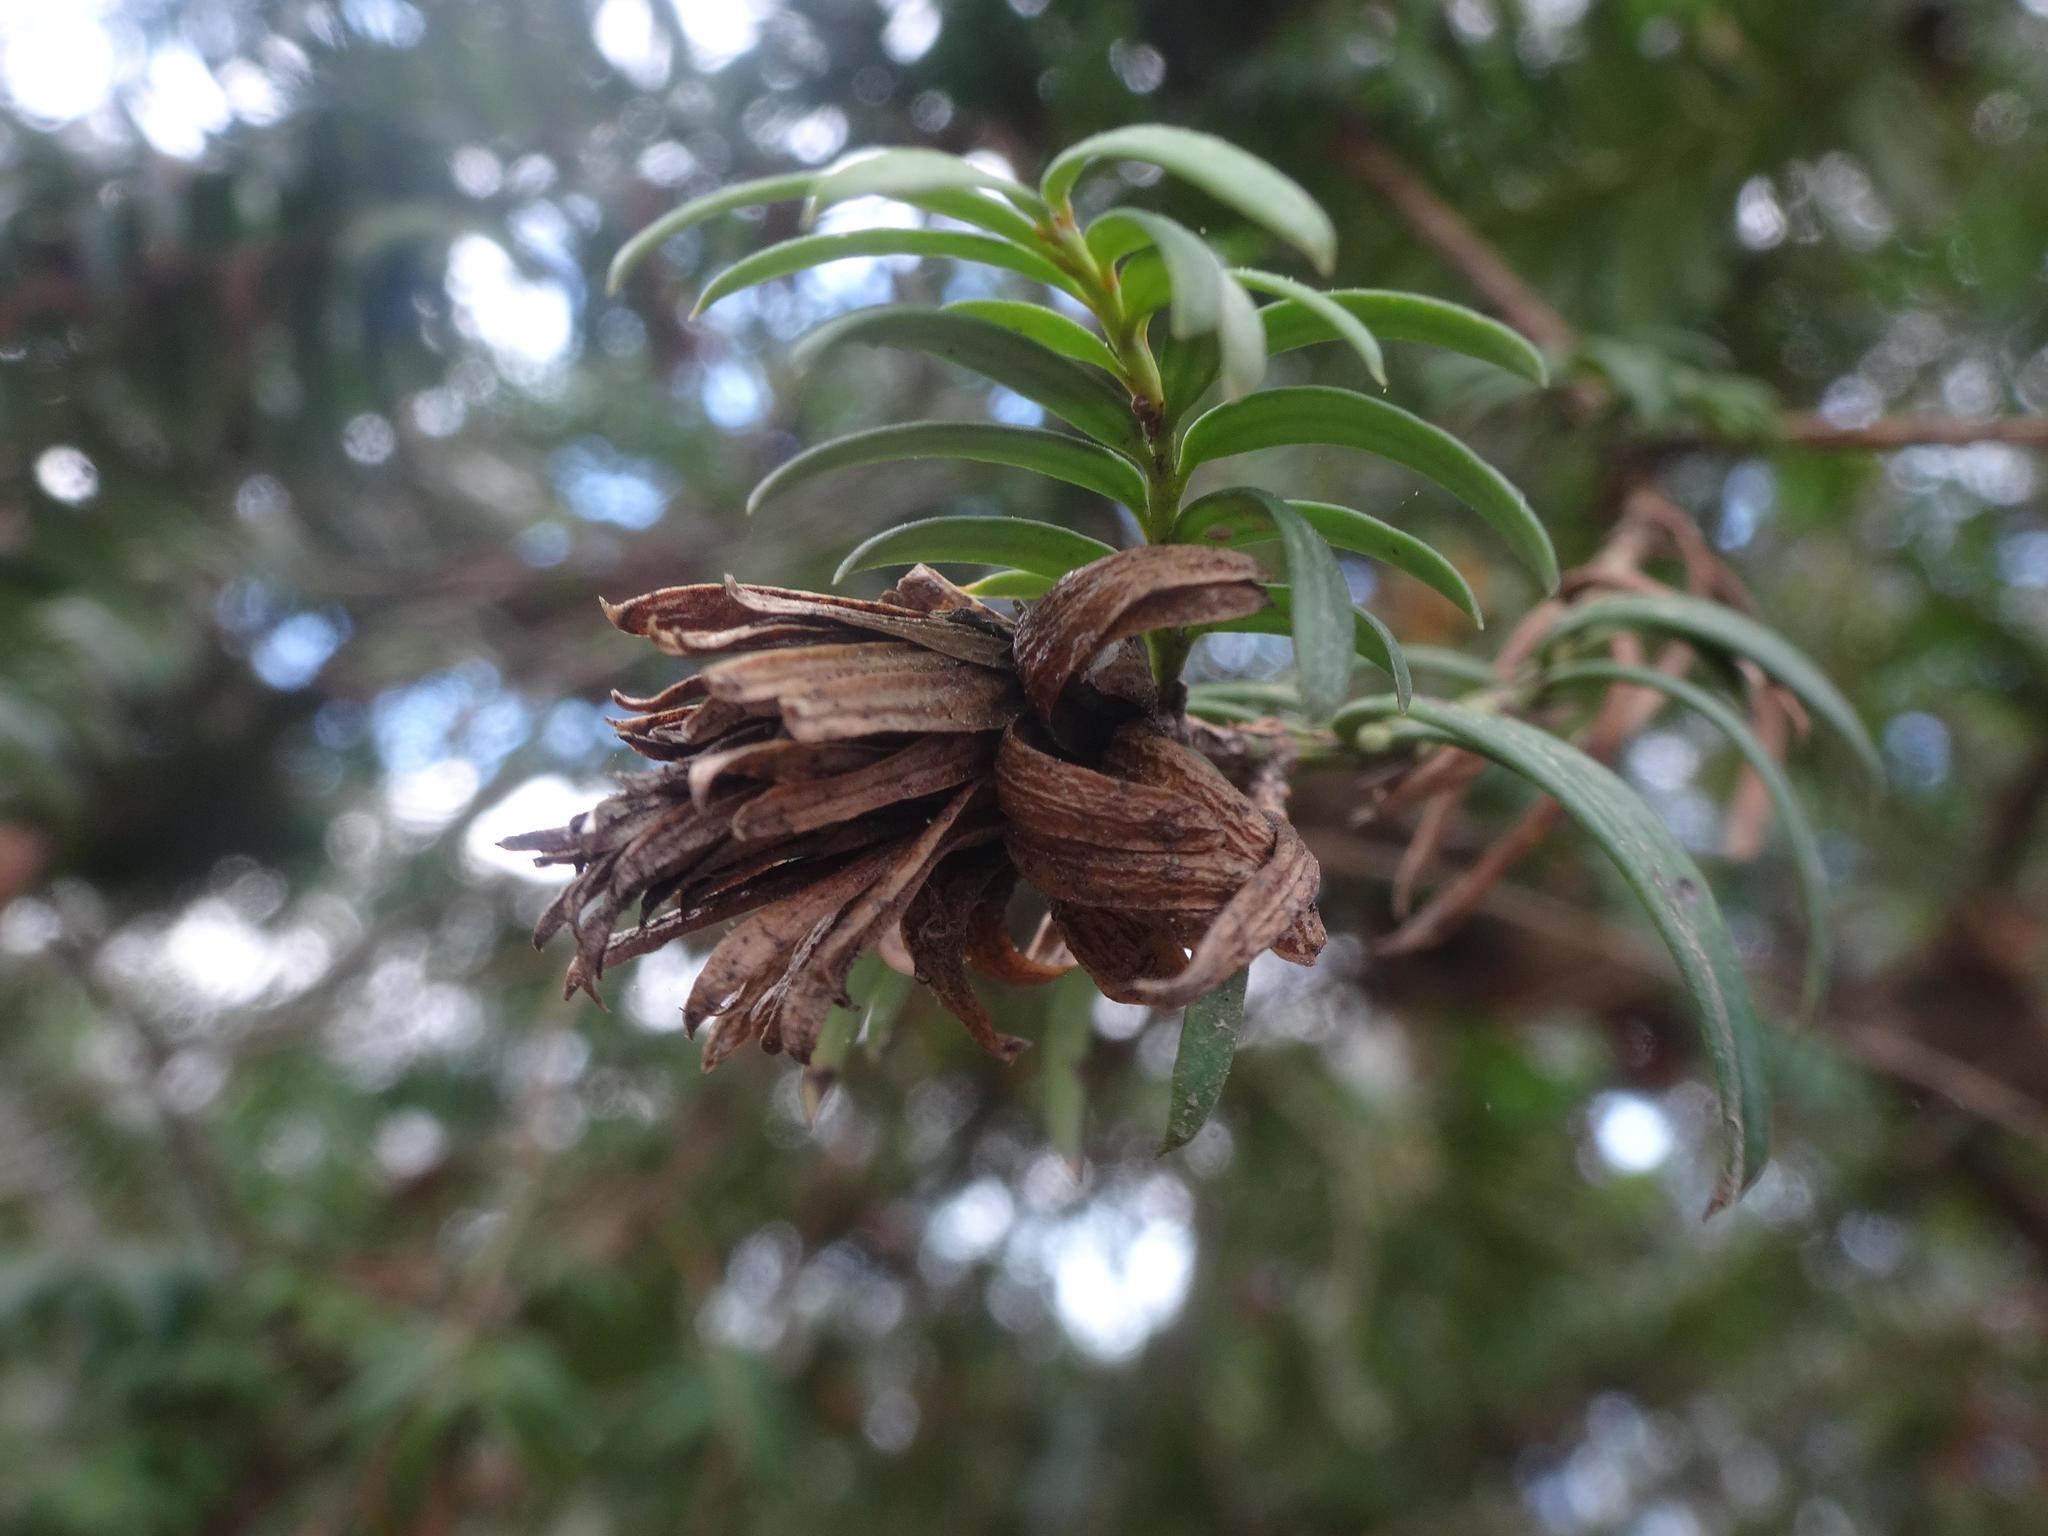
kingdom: Plantae
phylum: Tracheophyta
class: Pinopsida
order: Pinales
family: Taxaceae
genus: Taxus
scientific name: Taxus baccata
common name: Yew
